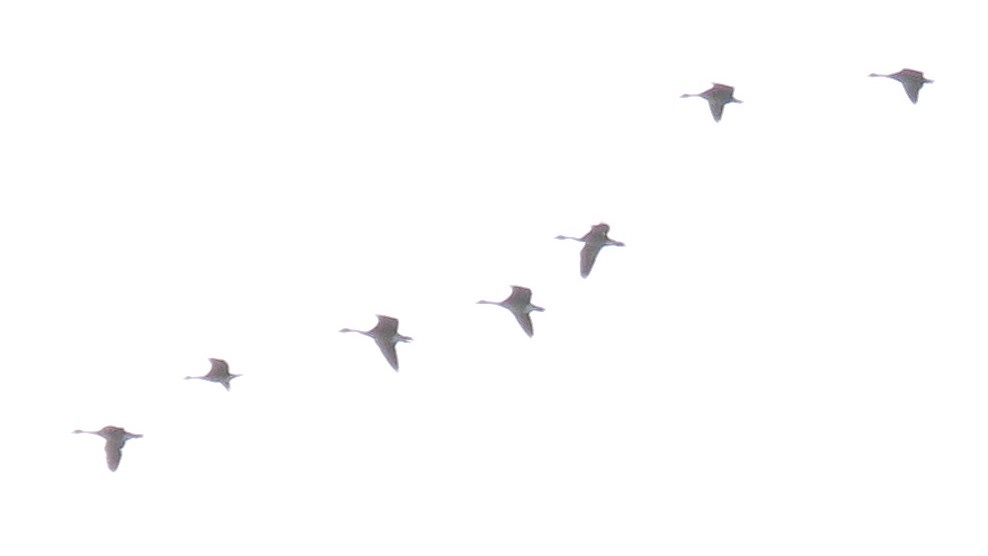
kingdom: Animalia
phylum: Chordata
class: Aves
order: Anseriformes
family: Anatidae
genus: Branta
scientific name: Branta hutchinsii
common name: Cackling goose
